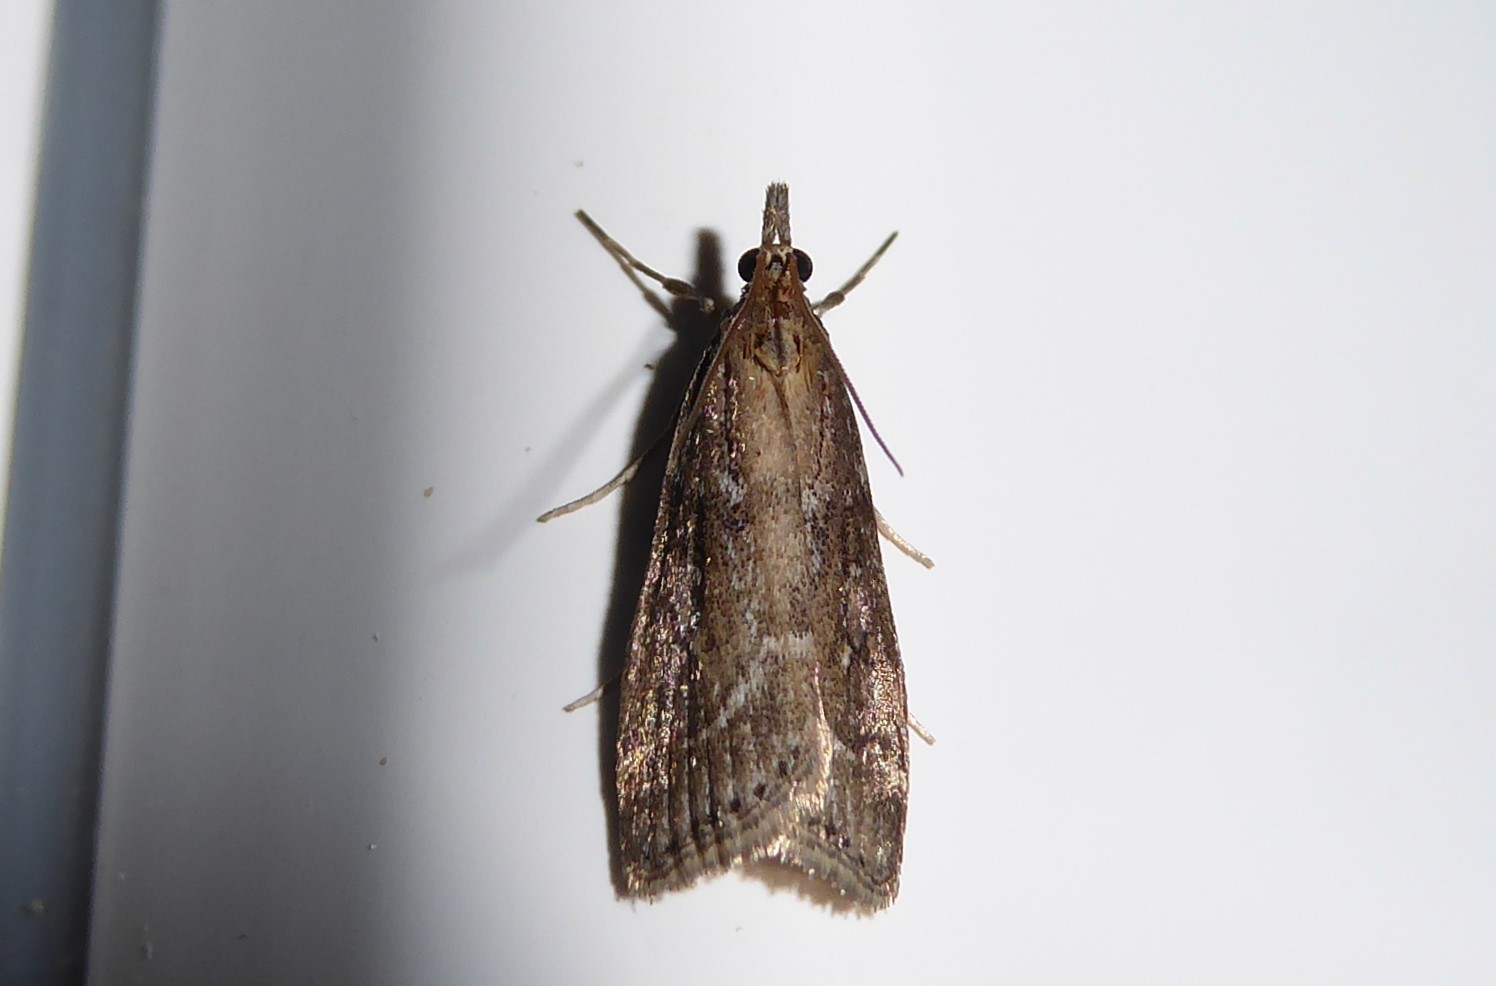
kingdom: Animalia
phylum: Arthropoda
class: Insecta
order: Lepidoptera
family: Crambidae
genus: Eudonia
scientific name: Eudonia octophora
